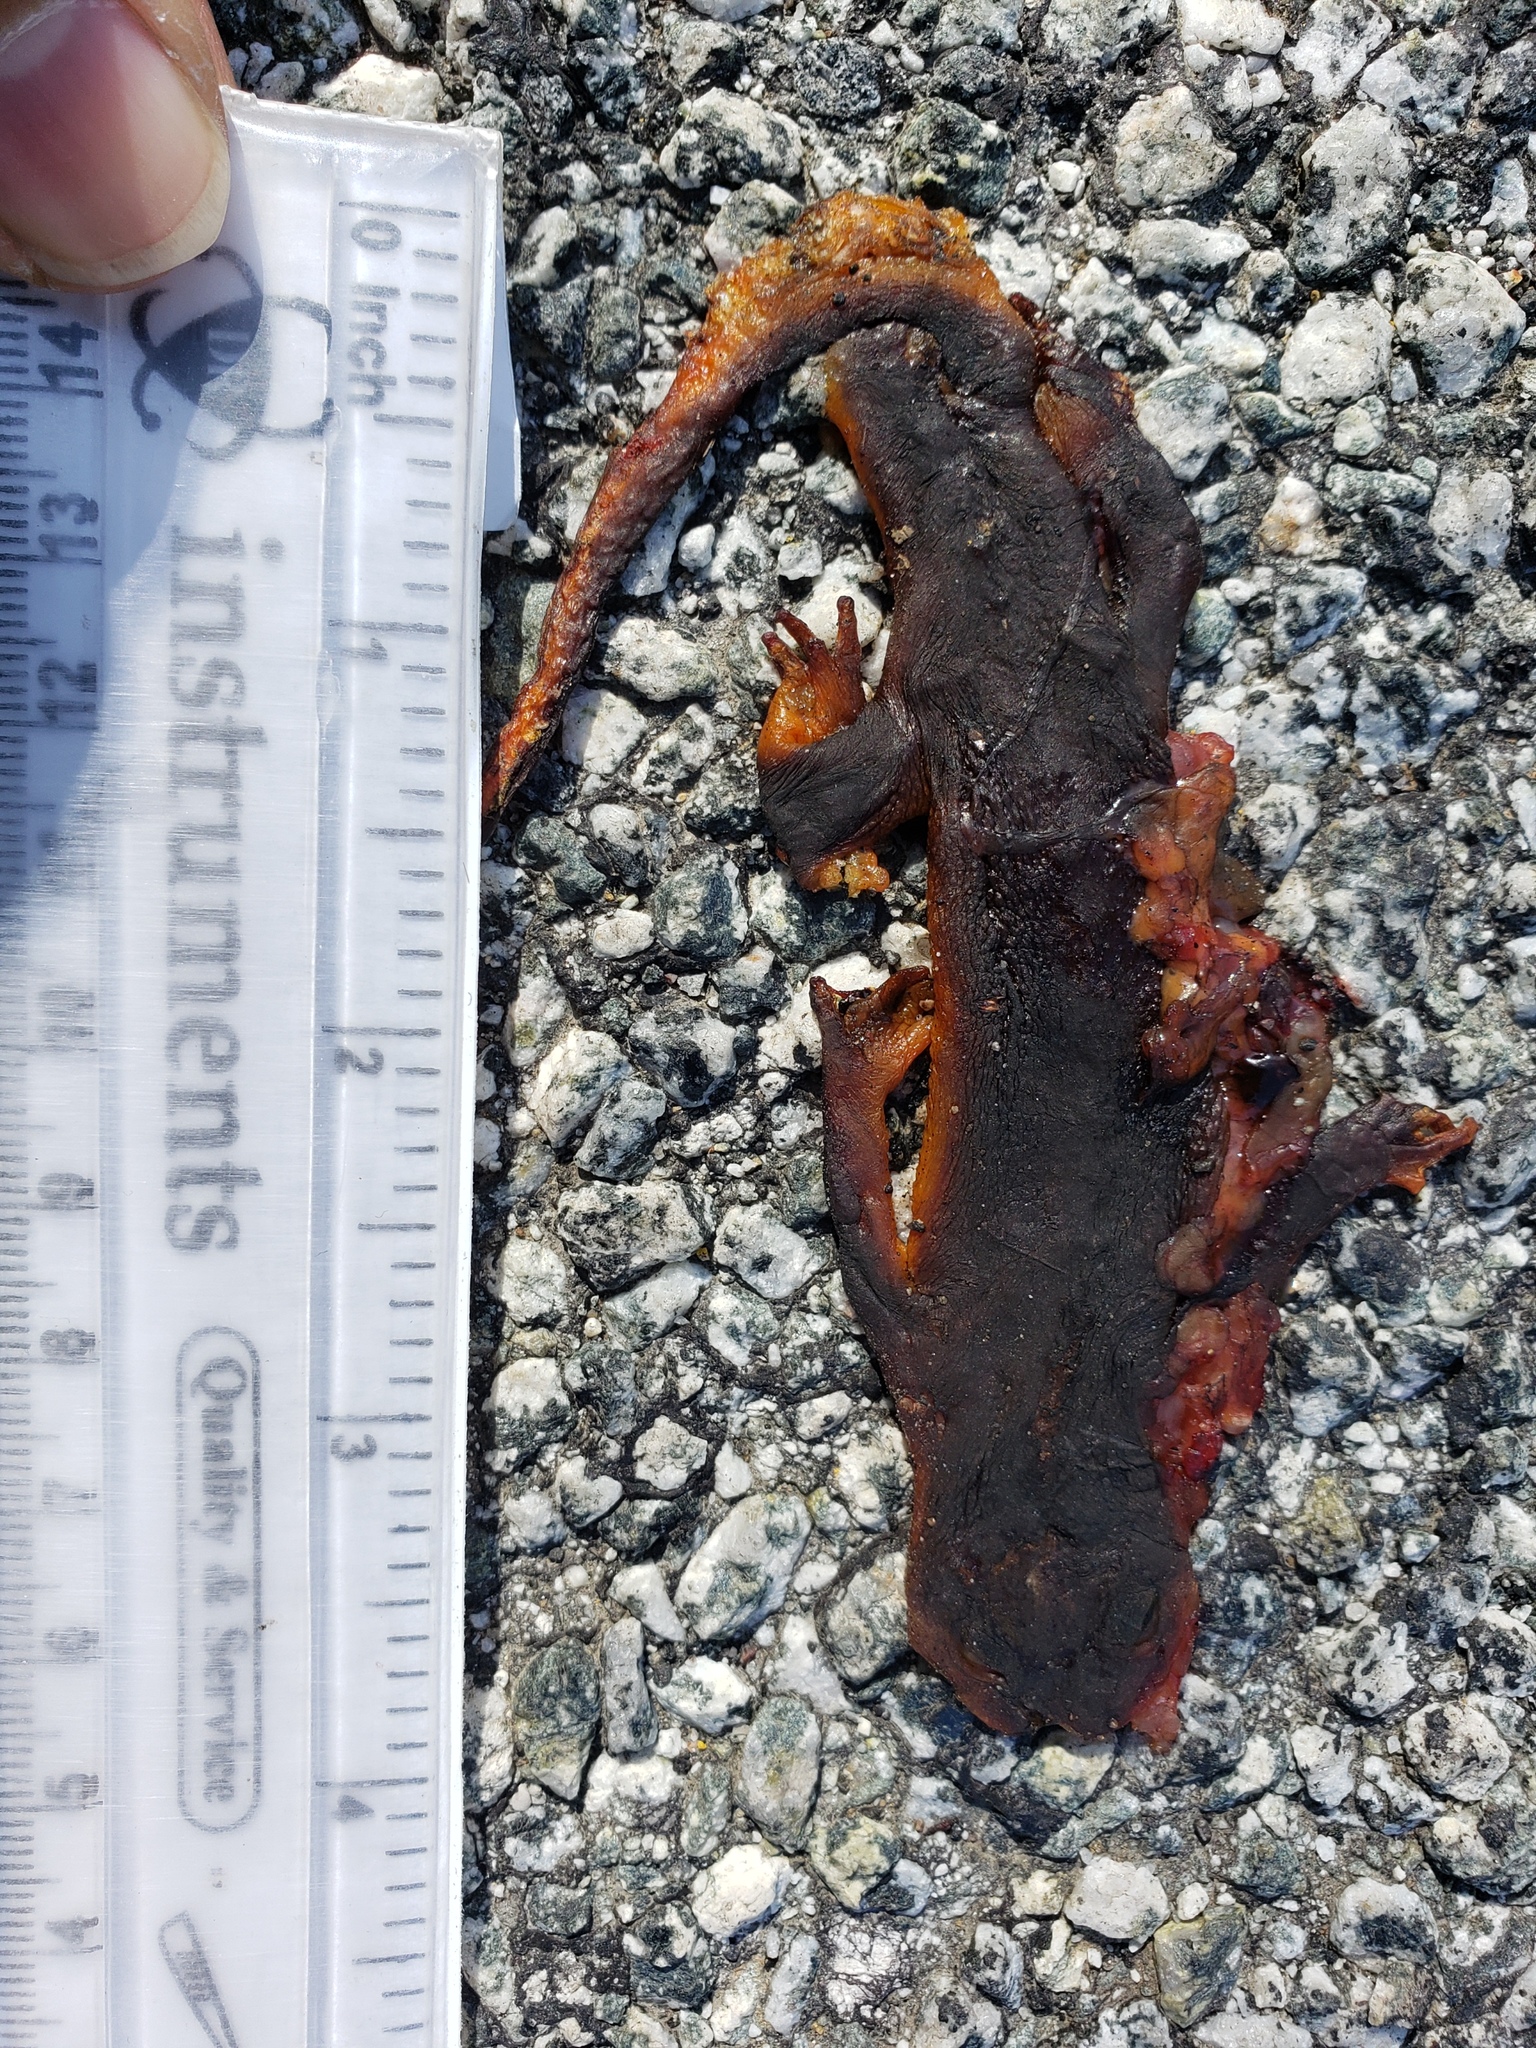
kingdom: Animalia
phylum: Chordata
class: Amphibia
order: Caudata
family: Salamandridae
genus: Taricha
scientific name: Taricha
